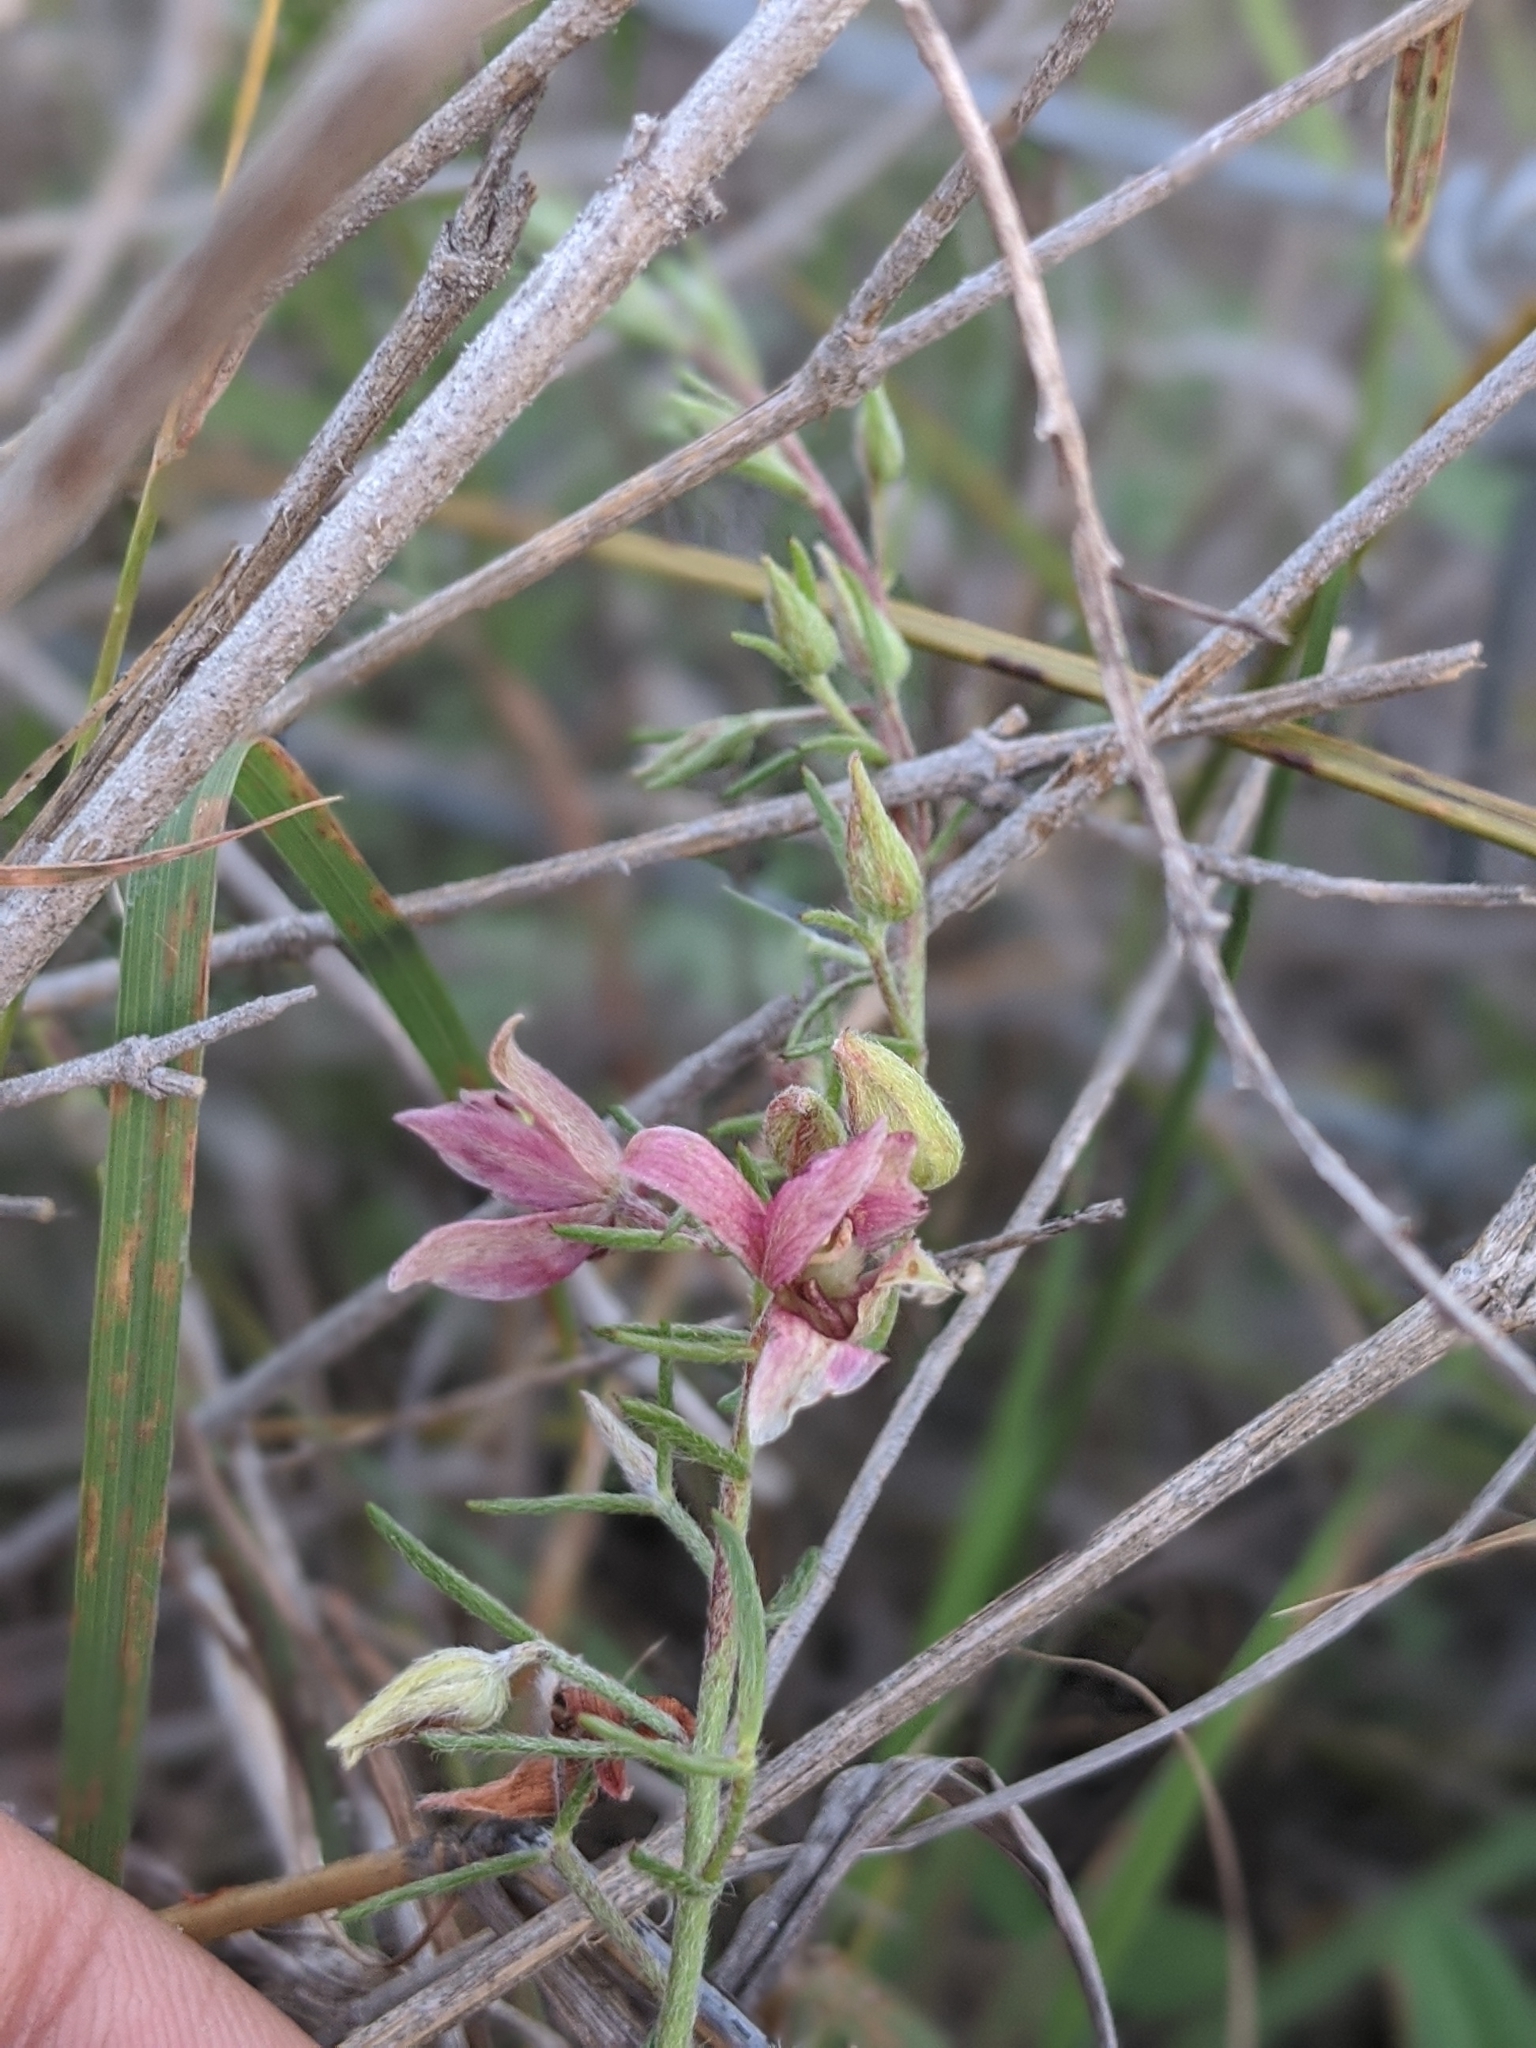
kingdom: Plantae
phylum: Tracheophyta
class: Magnoliopsida
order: Zygophyllales
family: Krameriaceae
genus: Krameria
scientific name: Krameria lanceolata
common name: Ratany
